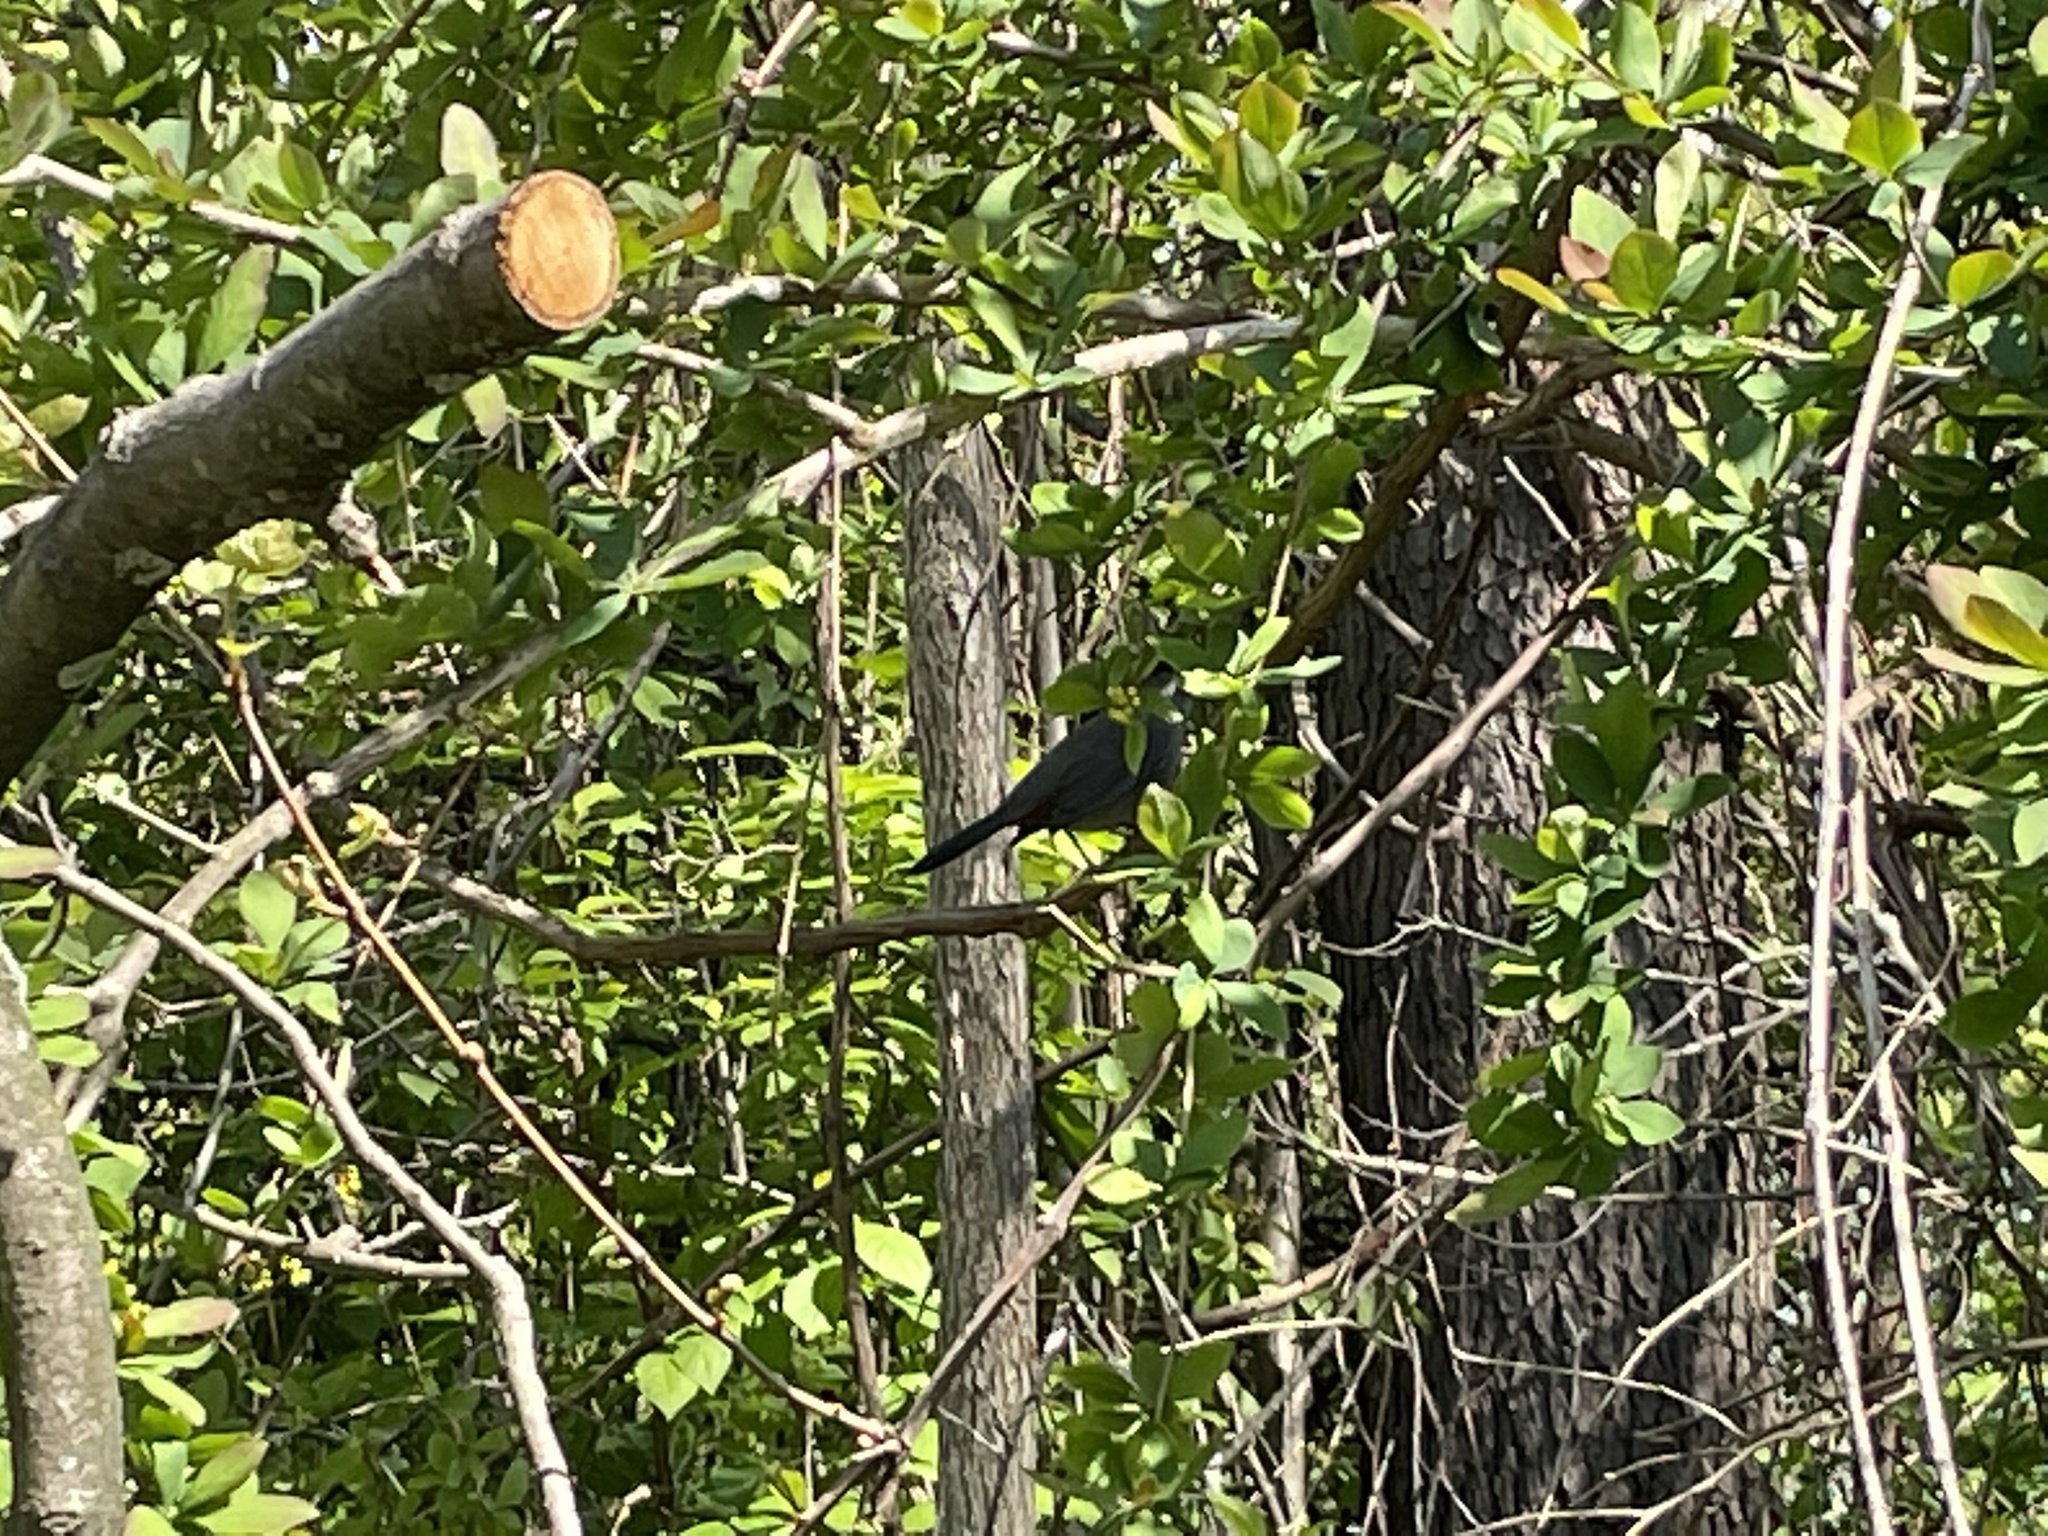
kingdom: Animalia
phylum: Chordata
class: Aves
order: Passeriformes
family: Mimidae
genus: Dumetella
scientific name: Dumetella carolinensis
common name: Gray catbird
